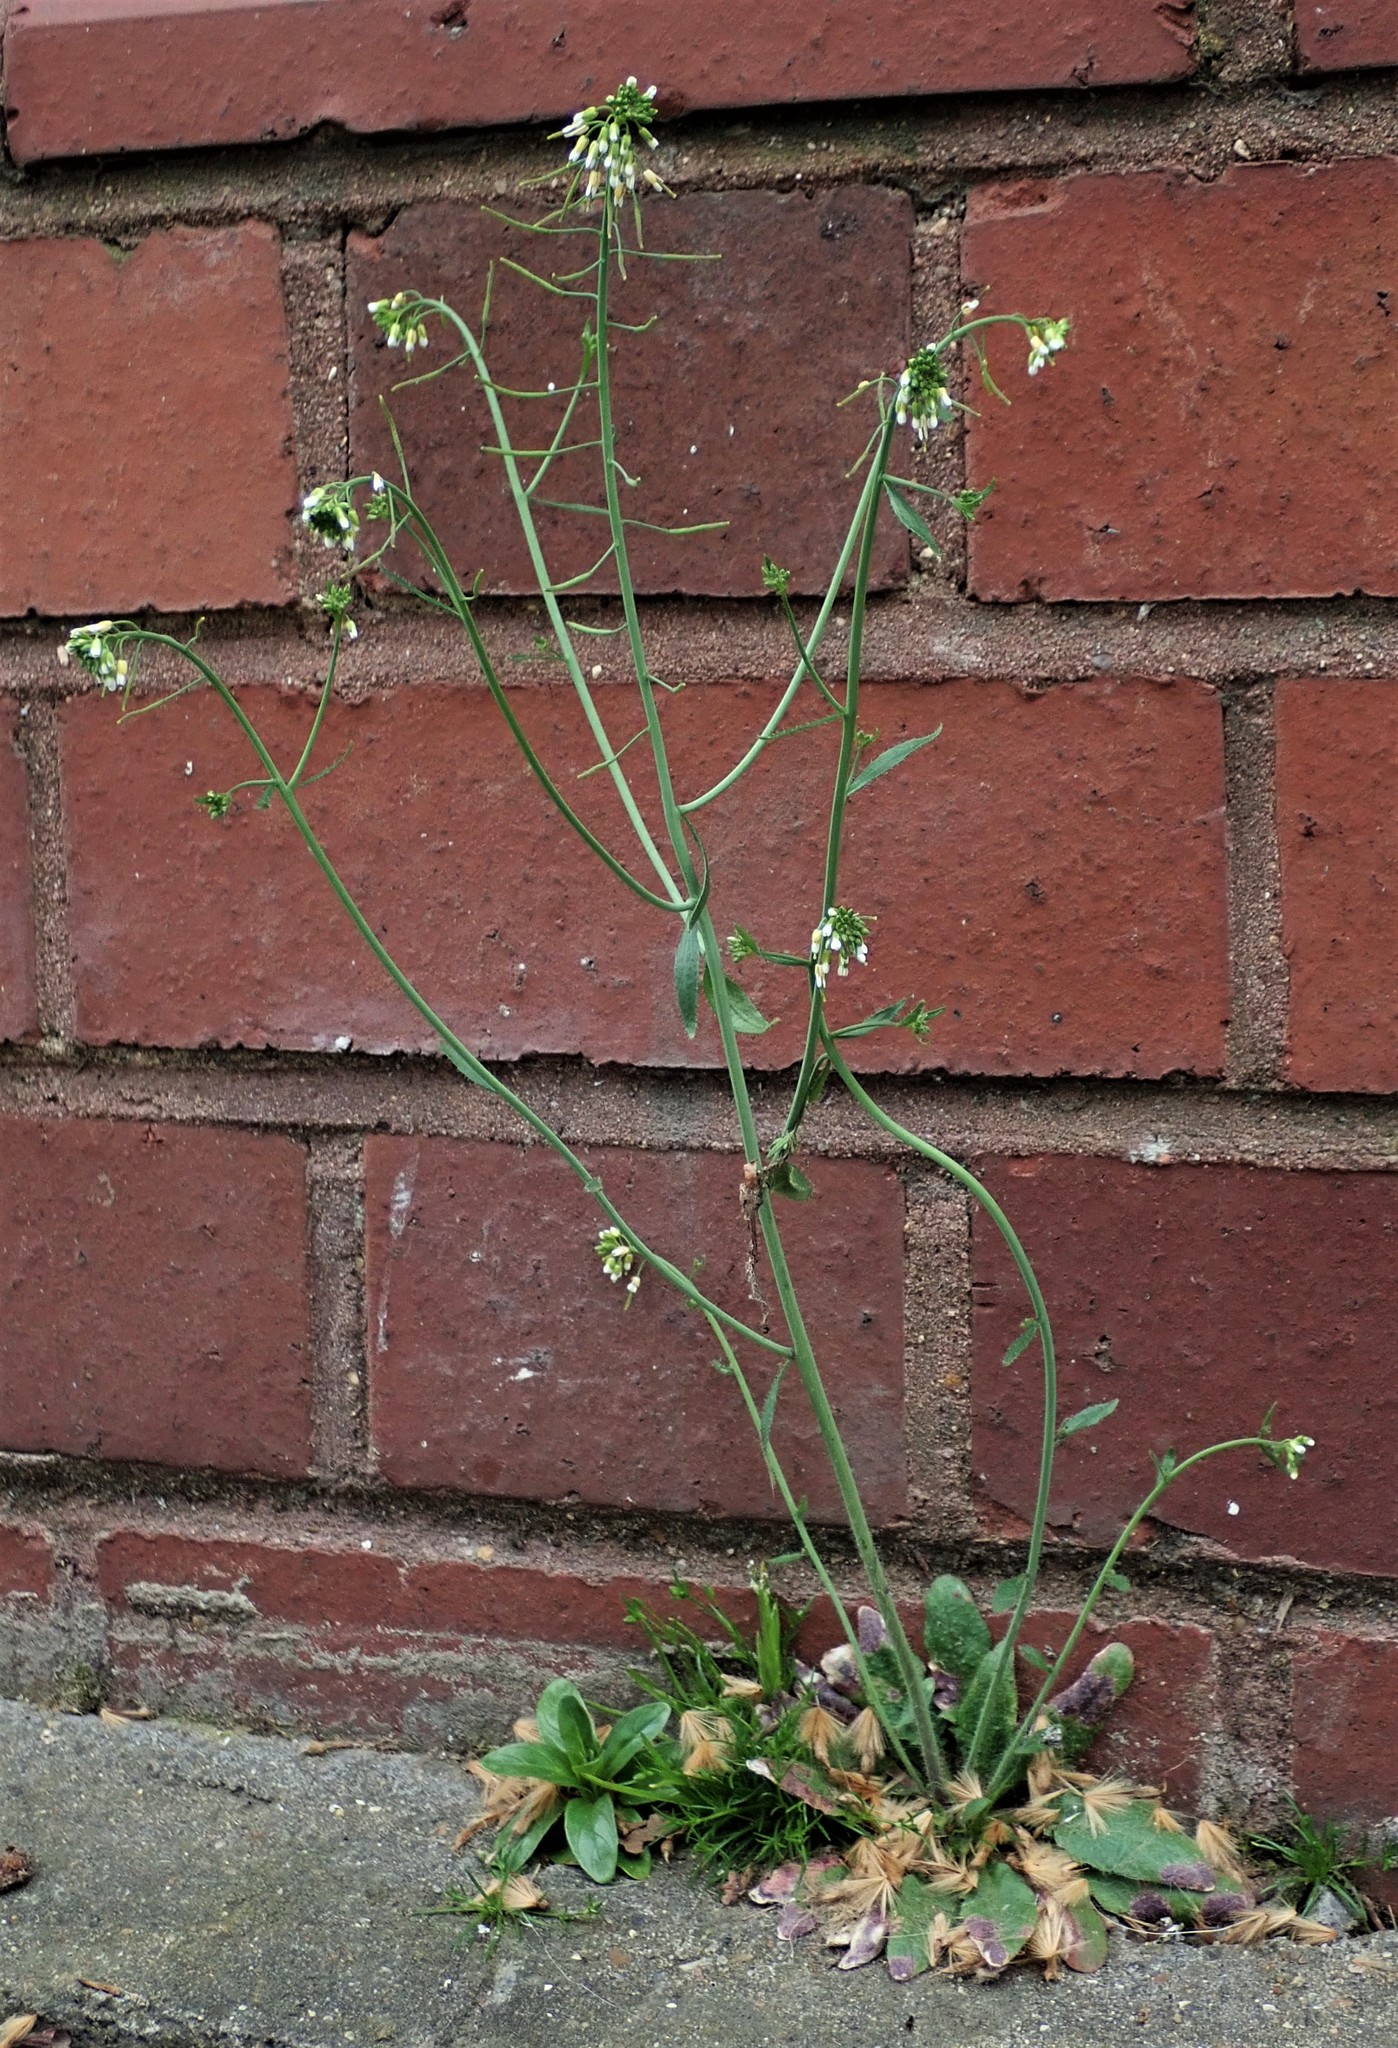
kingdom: Plantae
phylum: Tracheophyta
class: Magnoliopsida
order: Brassicales
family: Brassicaceae
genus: Arabidopsis
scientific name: Arabidopsis thaliana
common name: Thale cress
